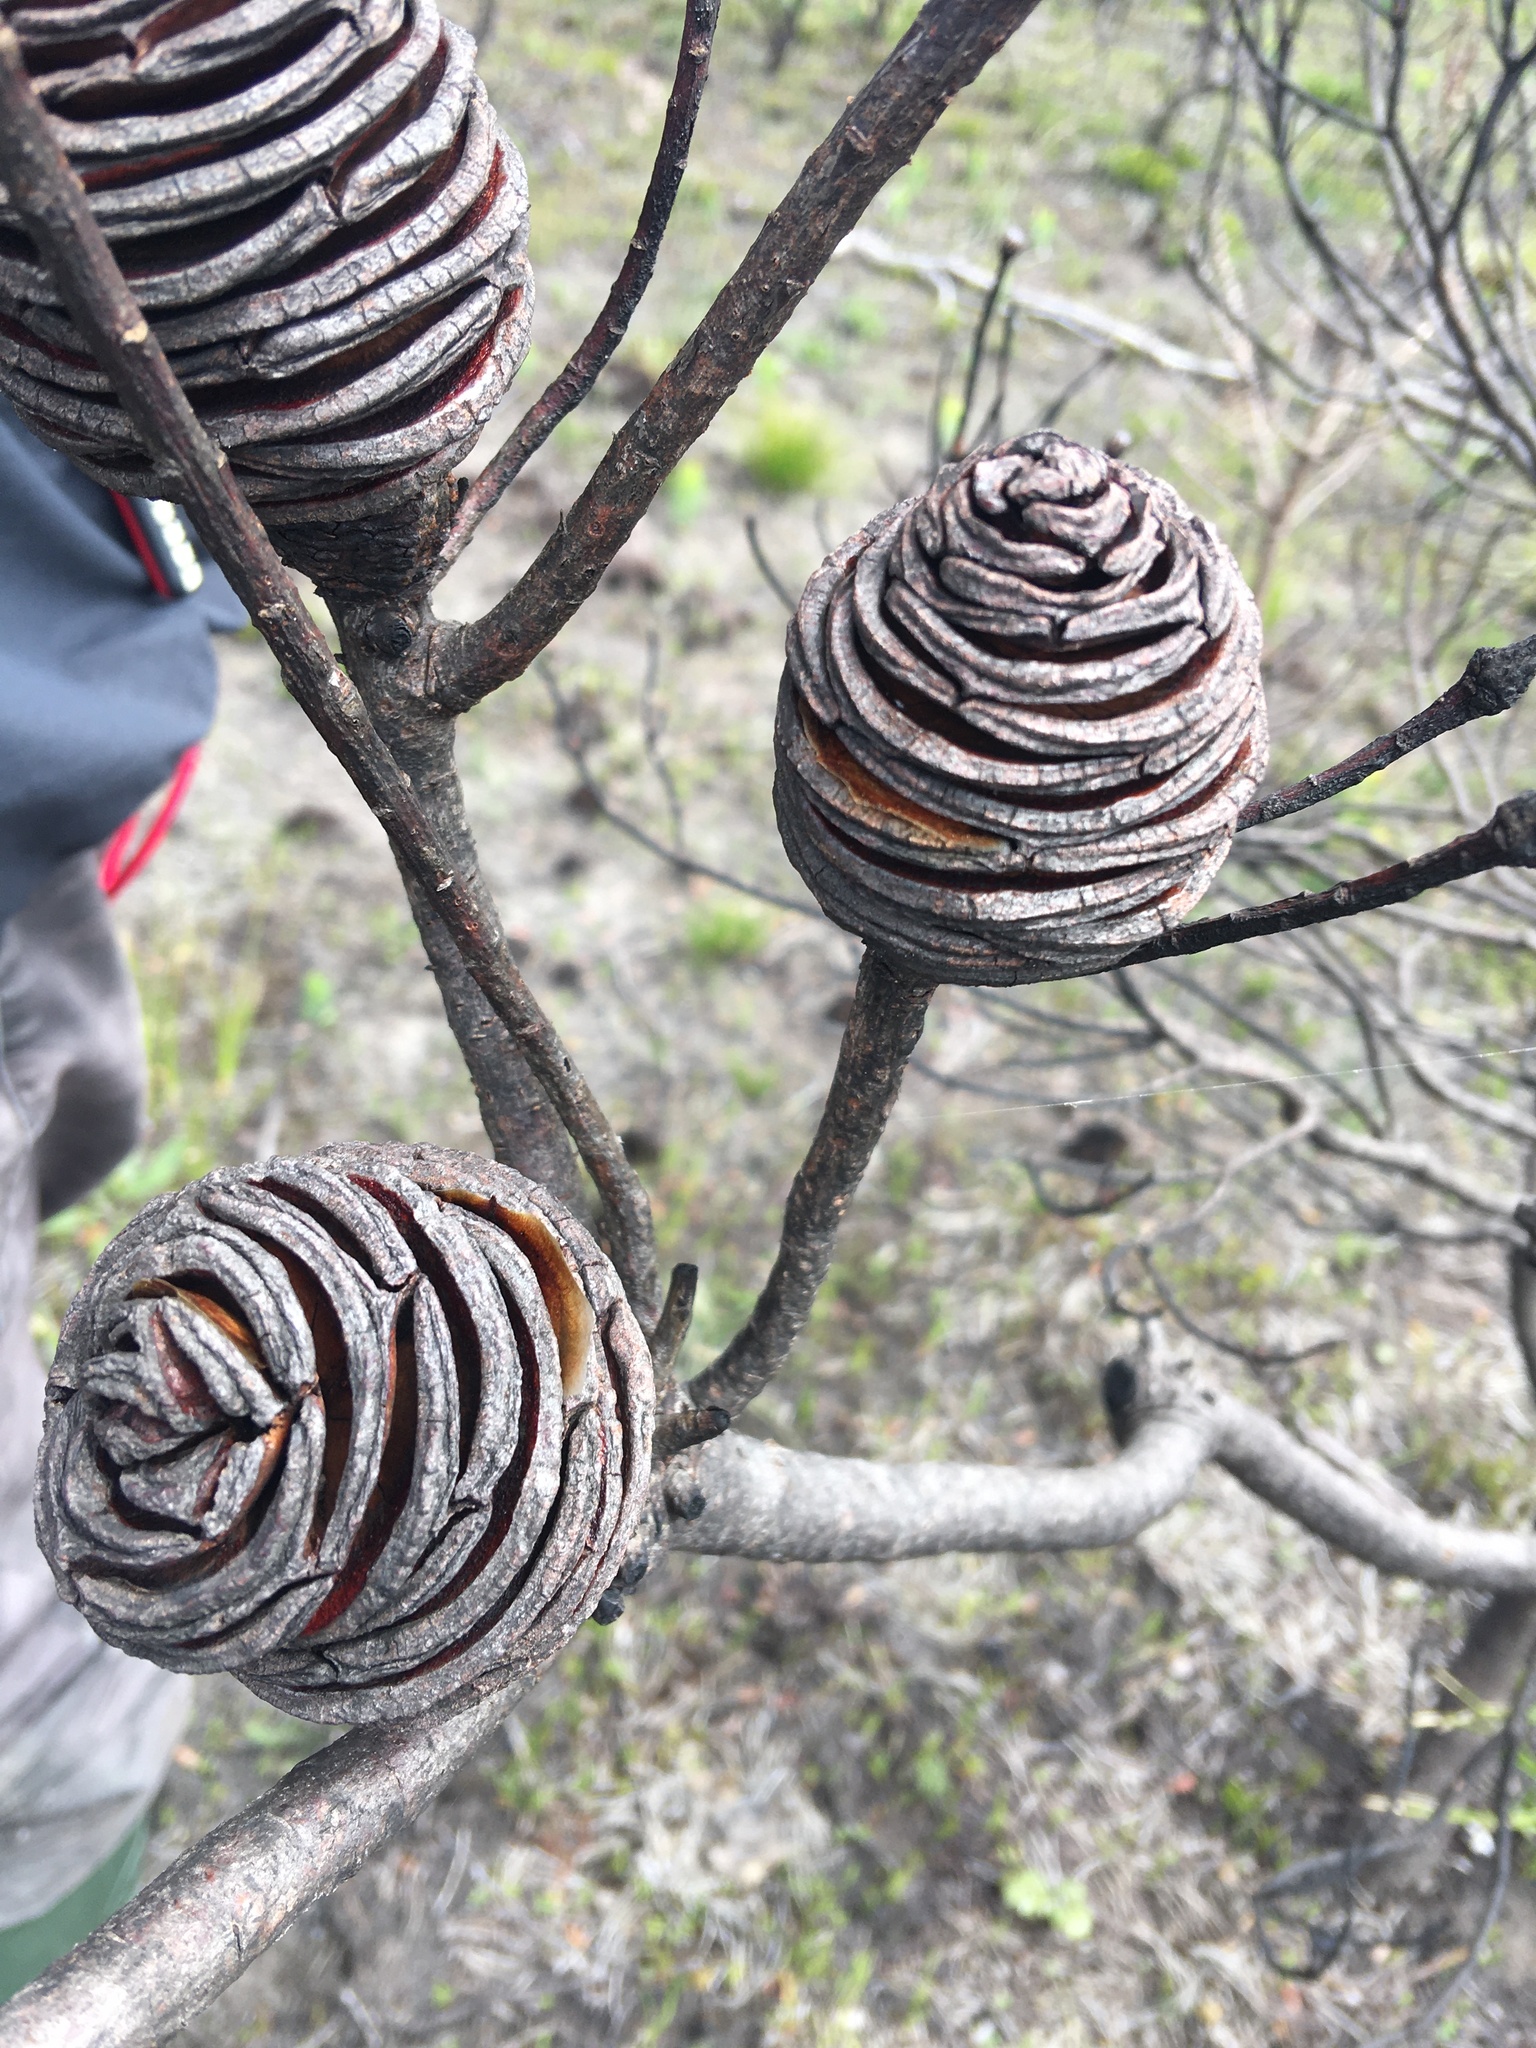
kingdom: Plantae
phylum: Tracheophyta
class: Magnoliopsida
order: Proteales
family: Proteaceae
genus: Leucadendron
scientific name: Leucadendron platyspermum
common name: Plate-seed conebush
